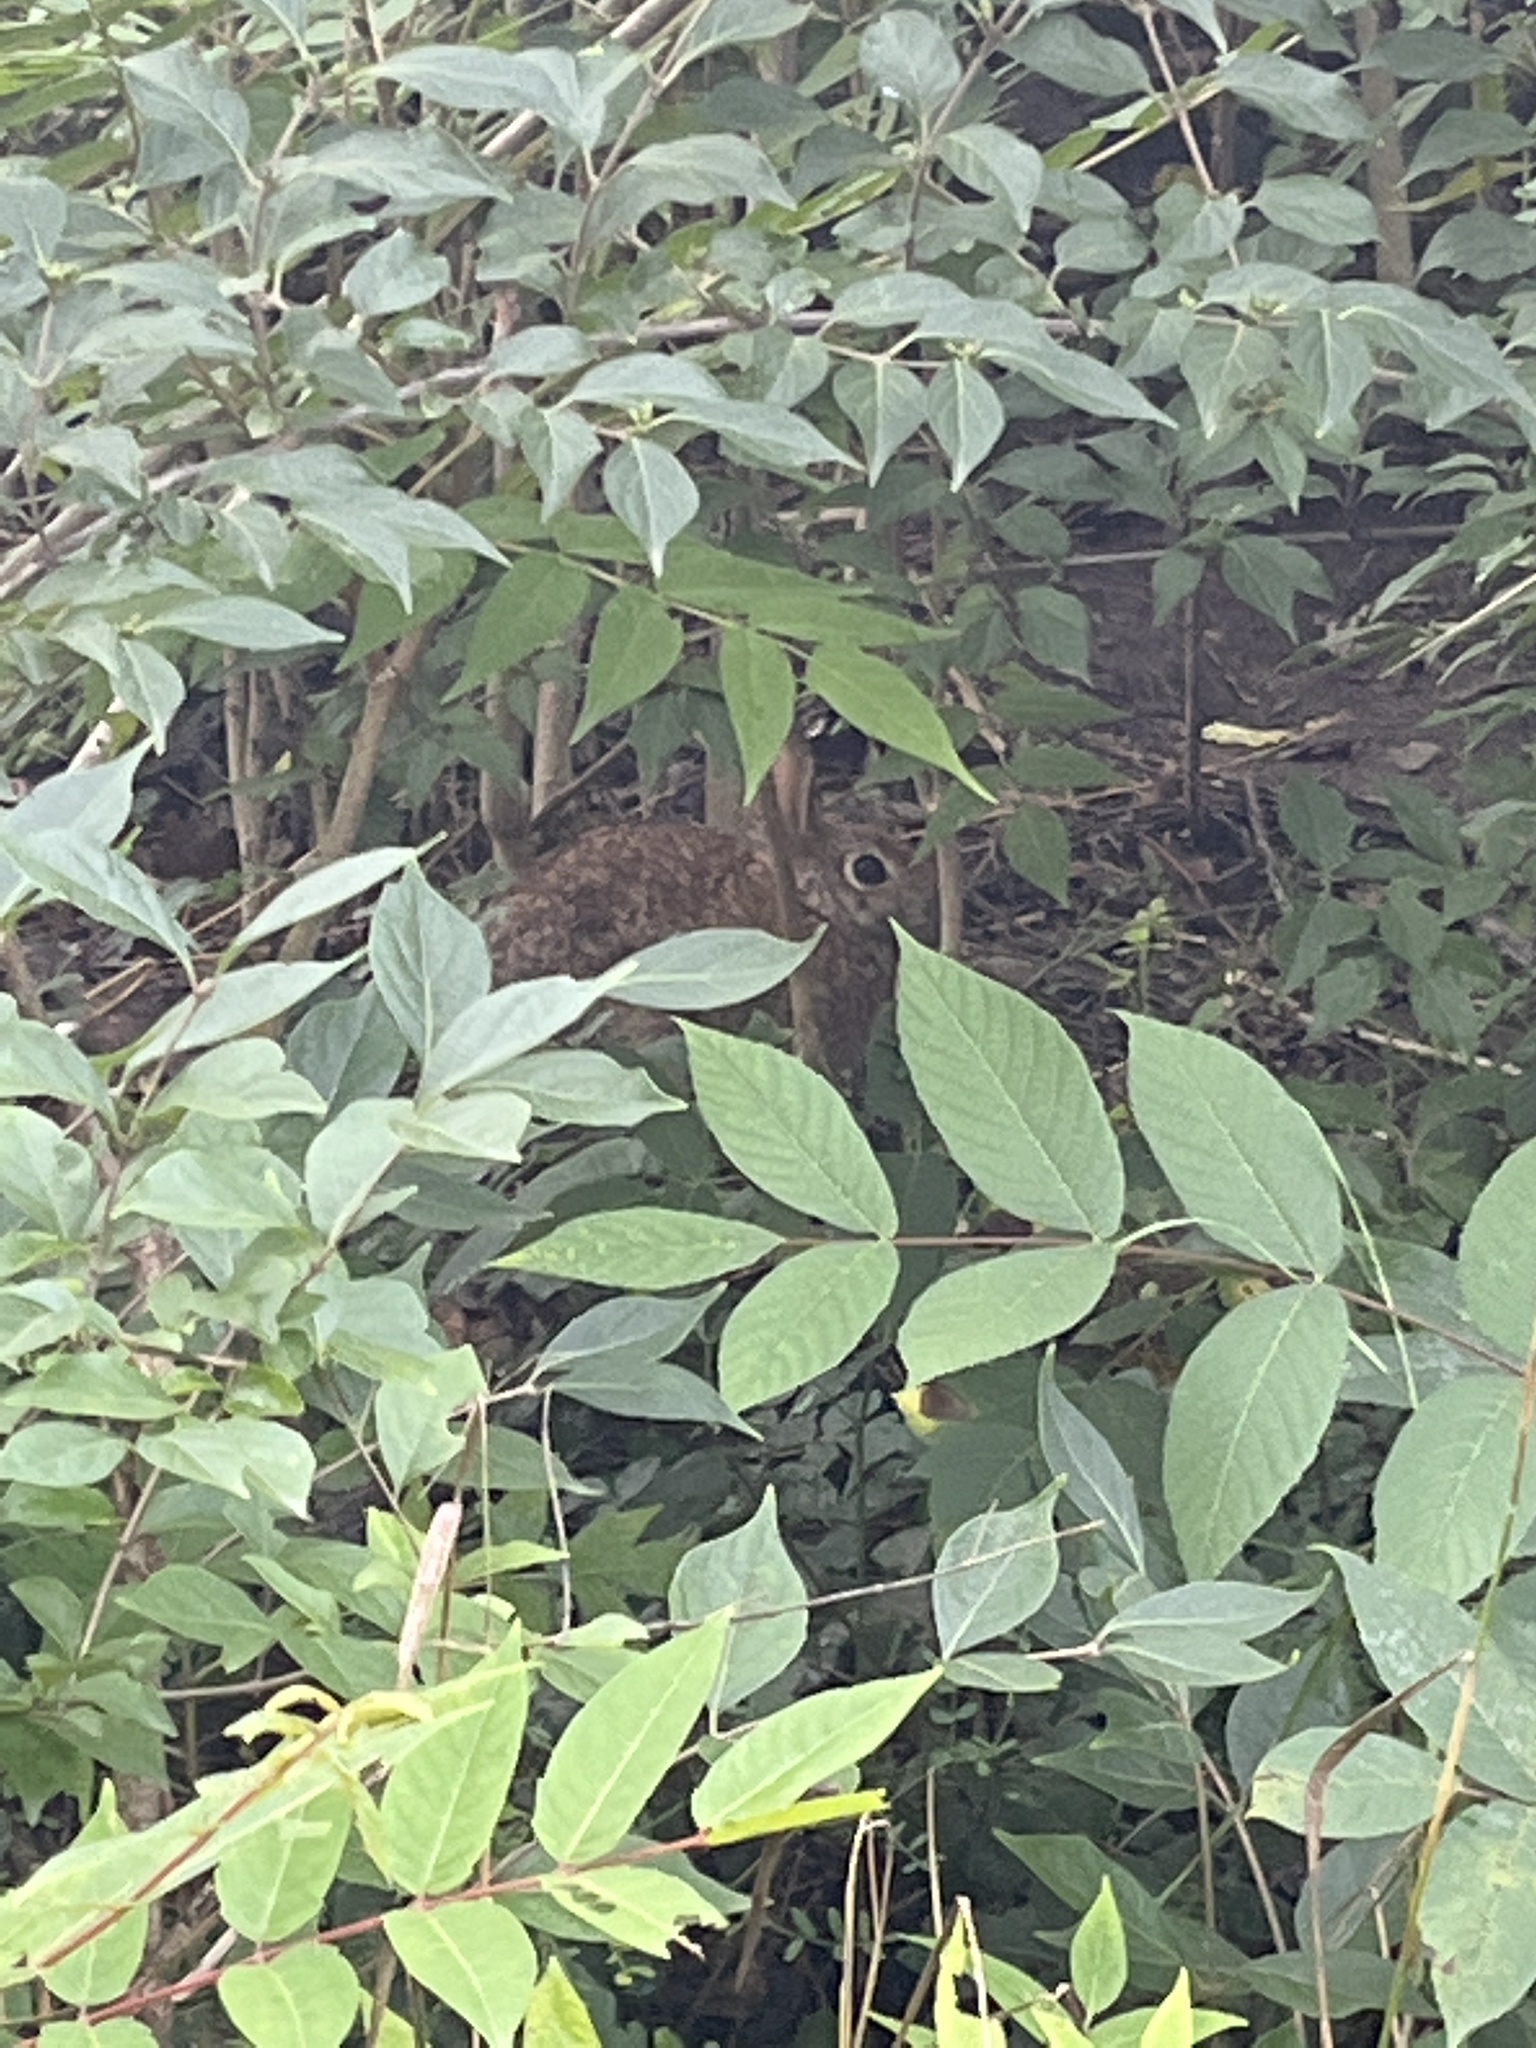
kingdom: Animalia
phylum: Chordata
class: Mammalia
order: Lagomorpha
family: Leporidae
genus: Sylvilagus
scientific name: Sylvilagus floridanus
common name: Eastern cottontail
